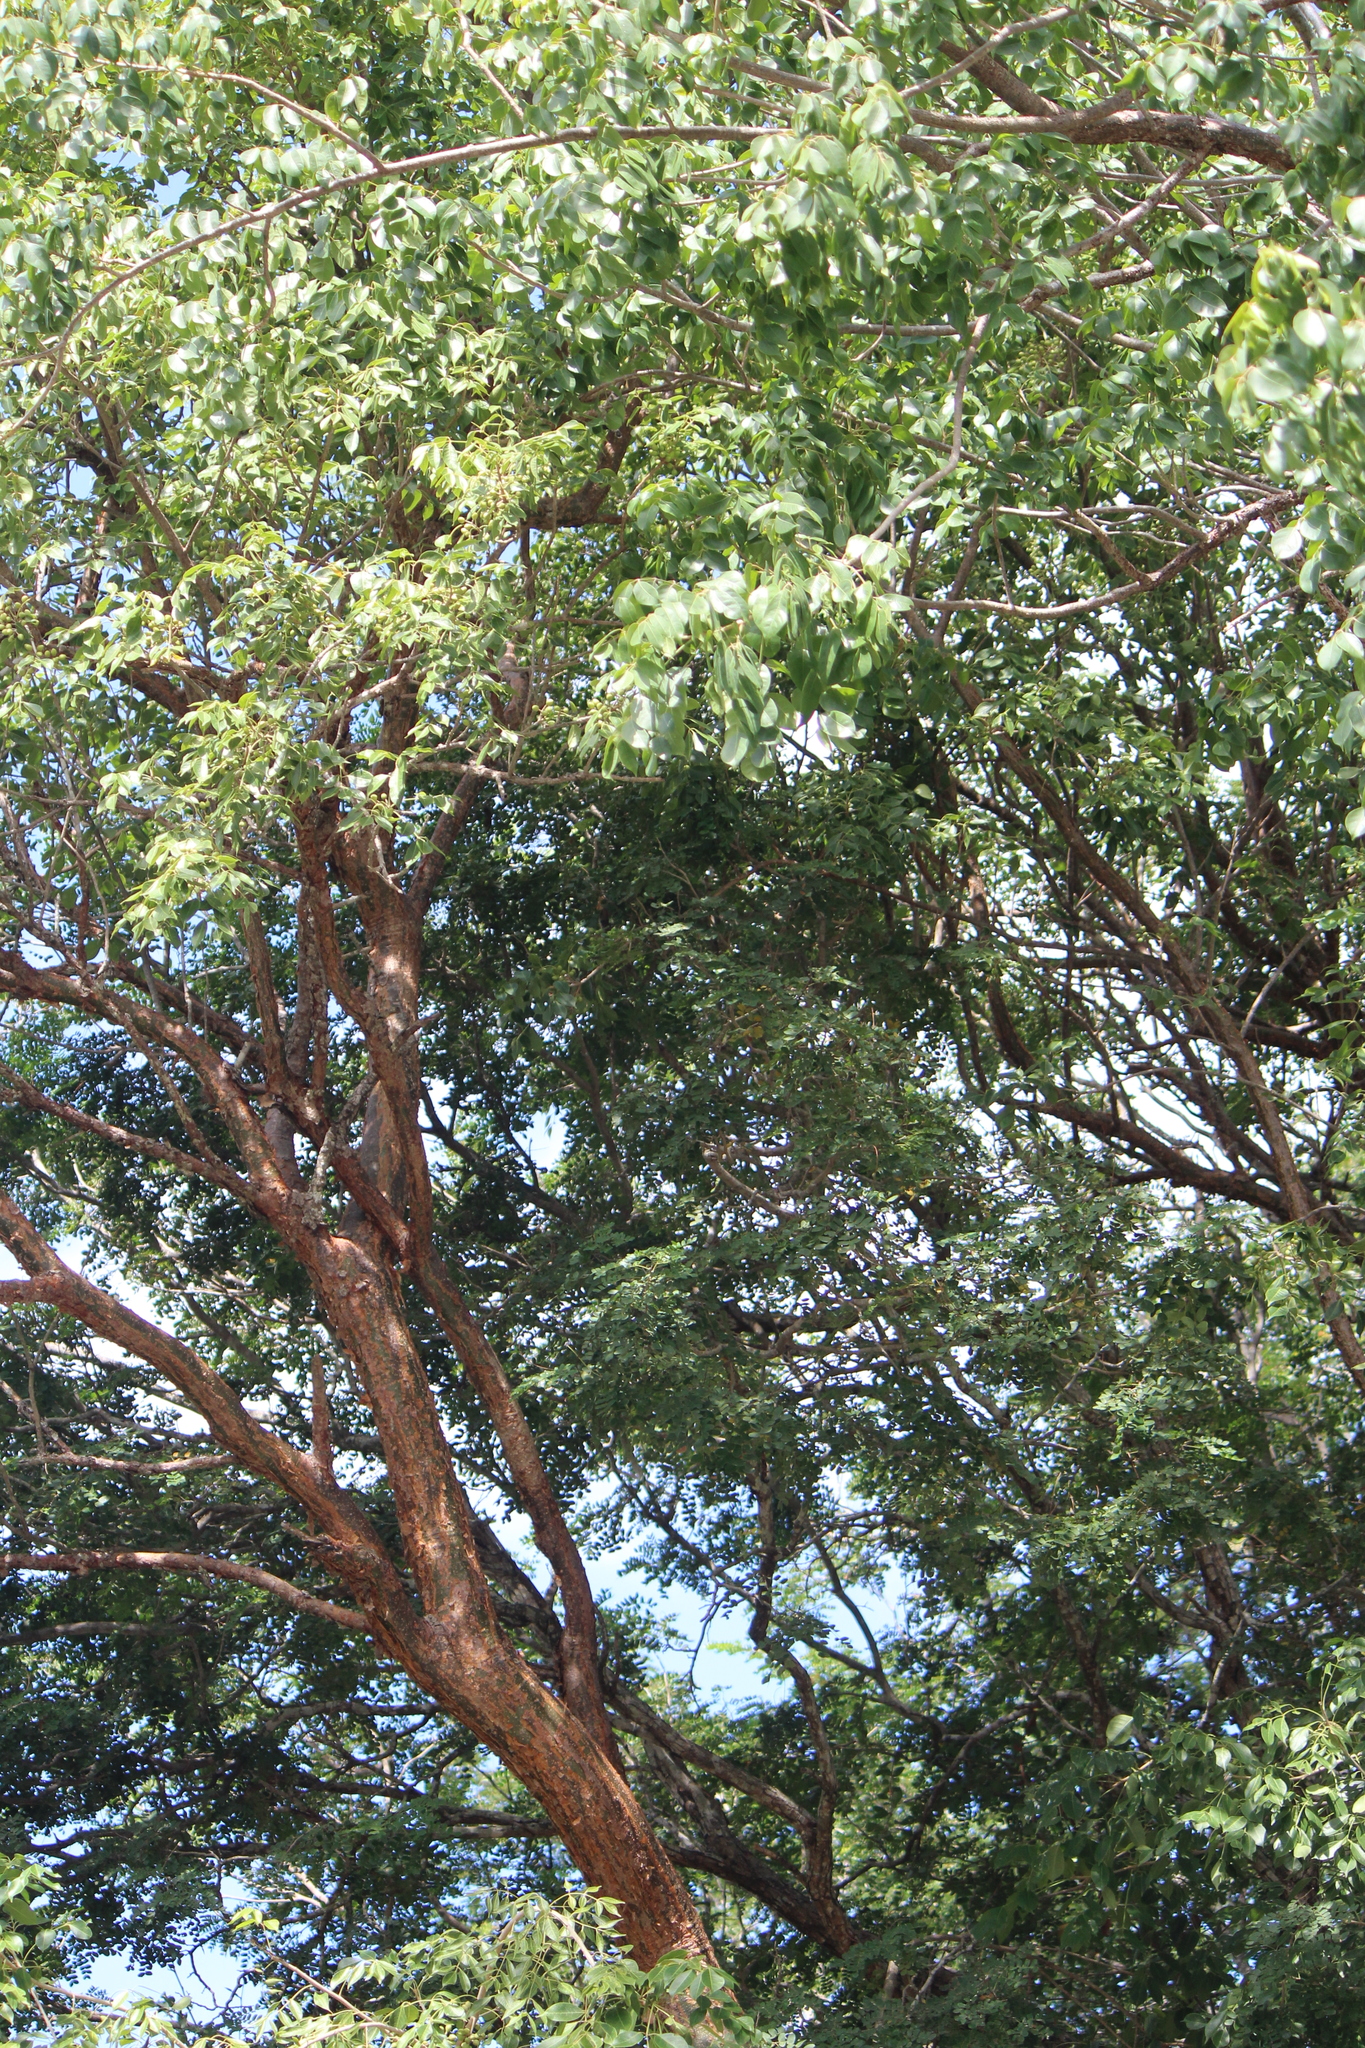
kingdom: Plantae
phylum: Tracheophyta
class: Magnoliopsida
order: Sapindales
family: Burseraceae
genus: Bursera
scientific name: Bursera simaruba
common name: Turpentine tree
